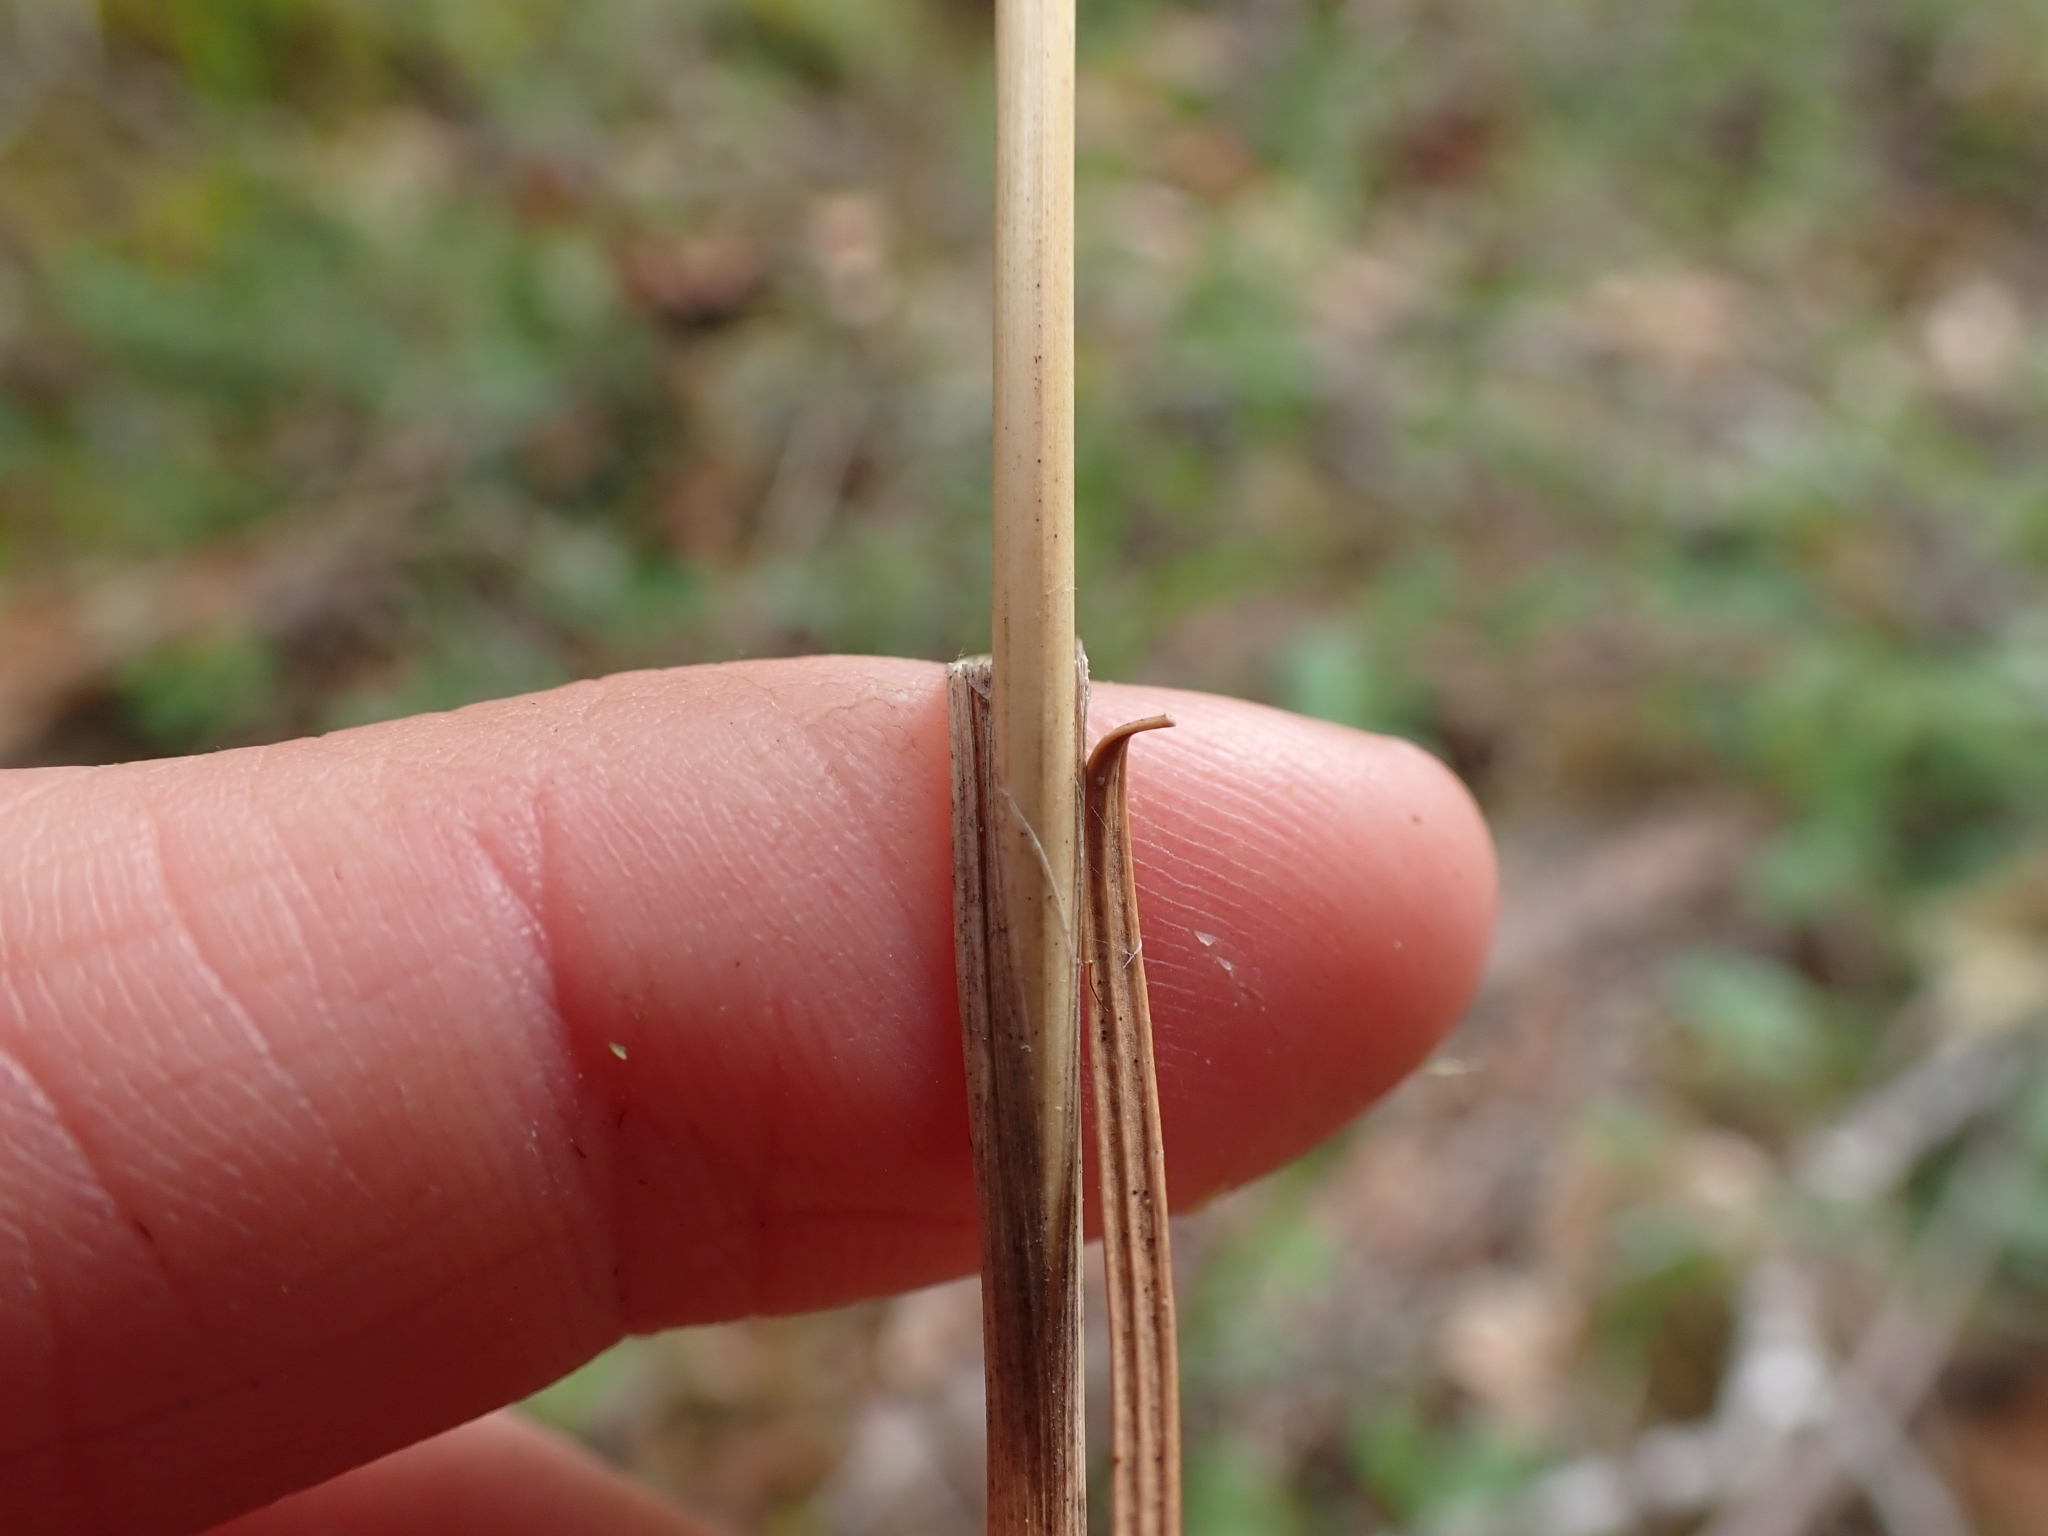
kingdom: Plantae
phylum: Tracheophyta
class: Liliopsida
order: Poales
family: Poaceae
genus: Dactylis
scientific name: Dactylis glomerata
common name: Orchardgrass
